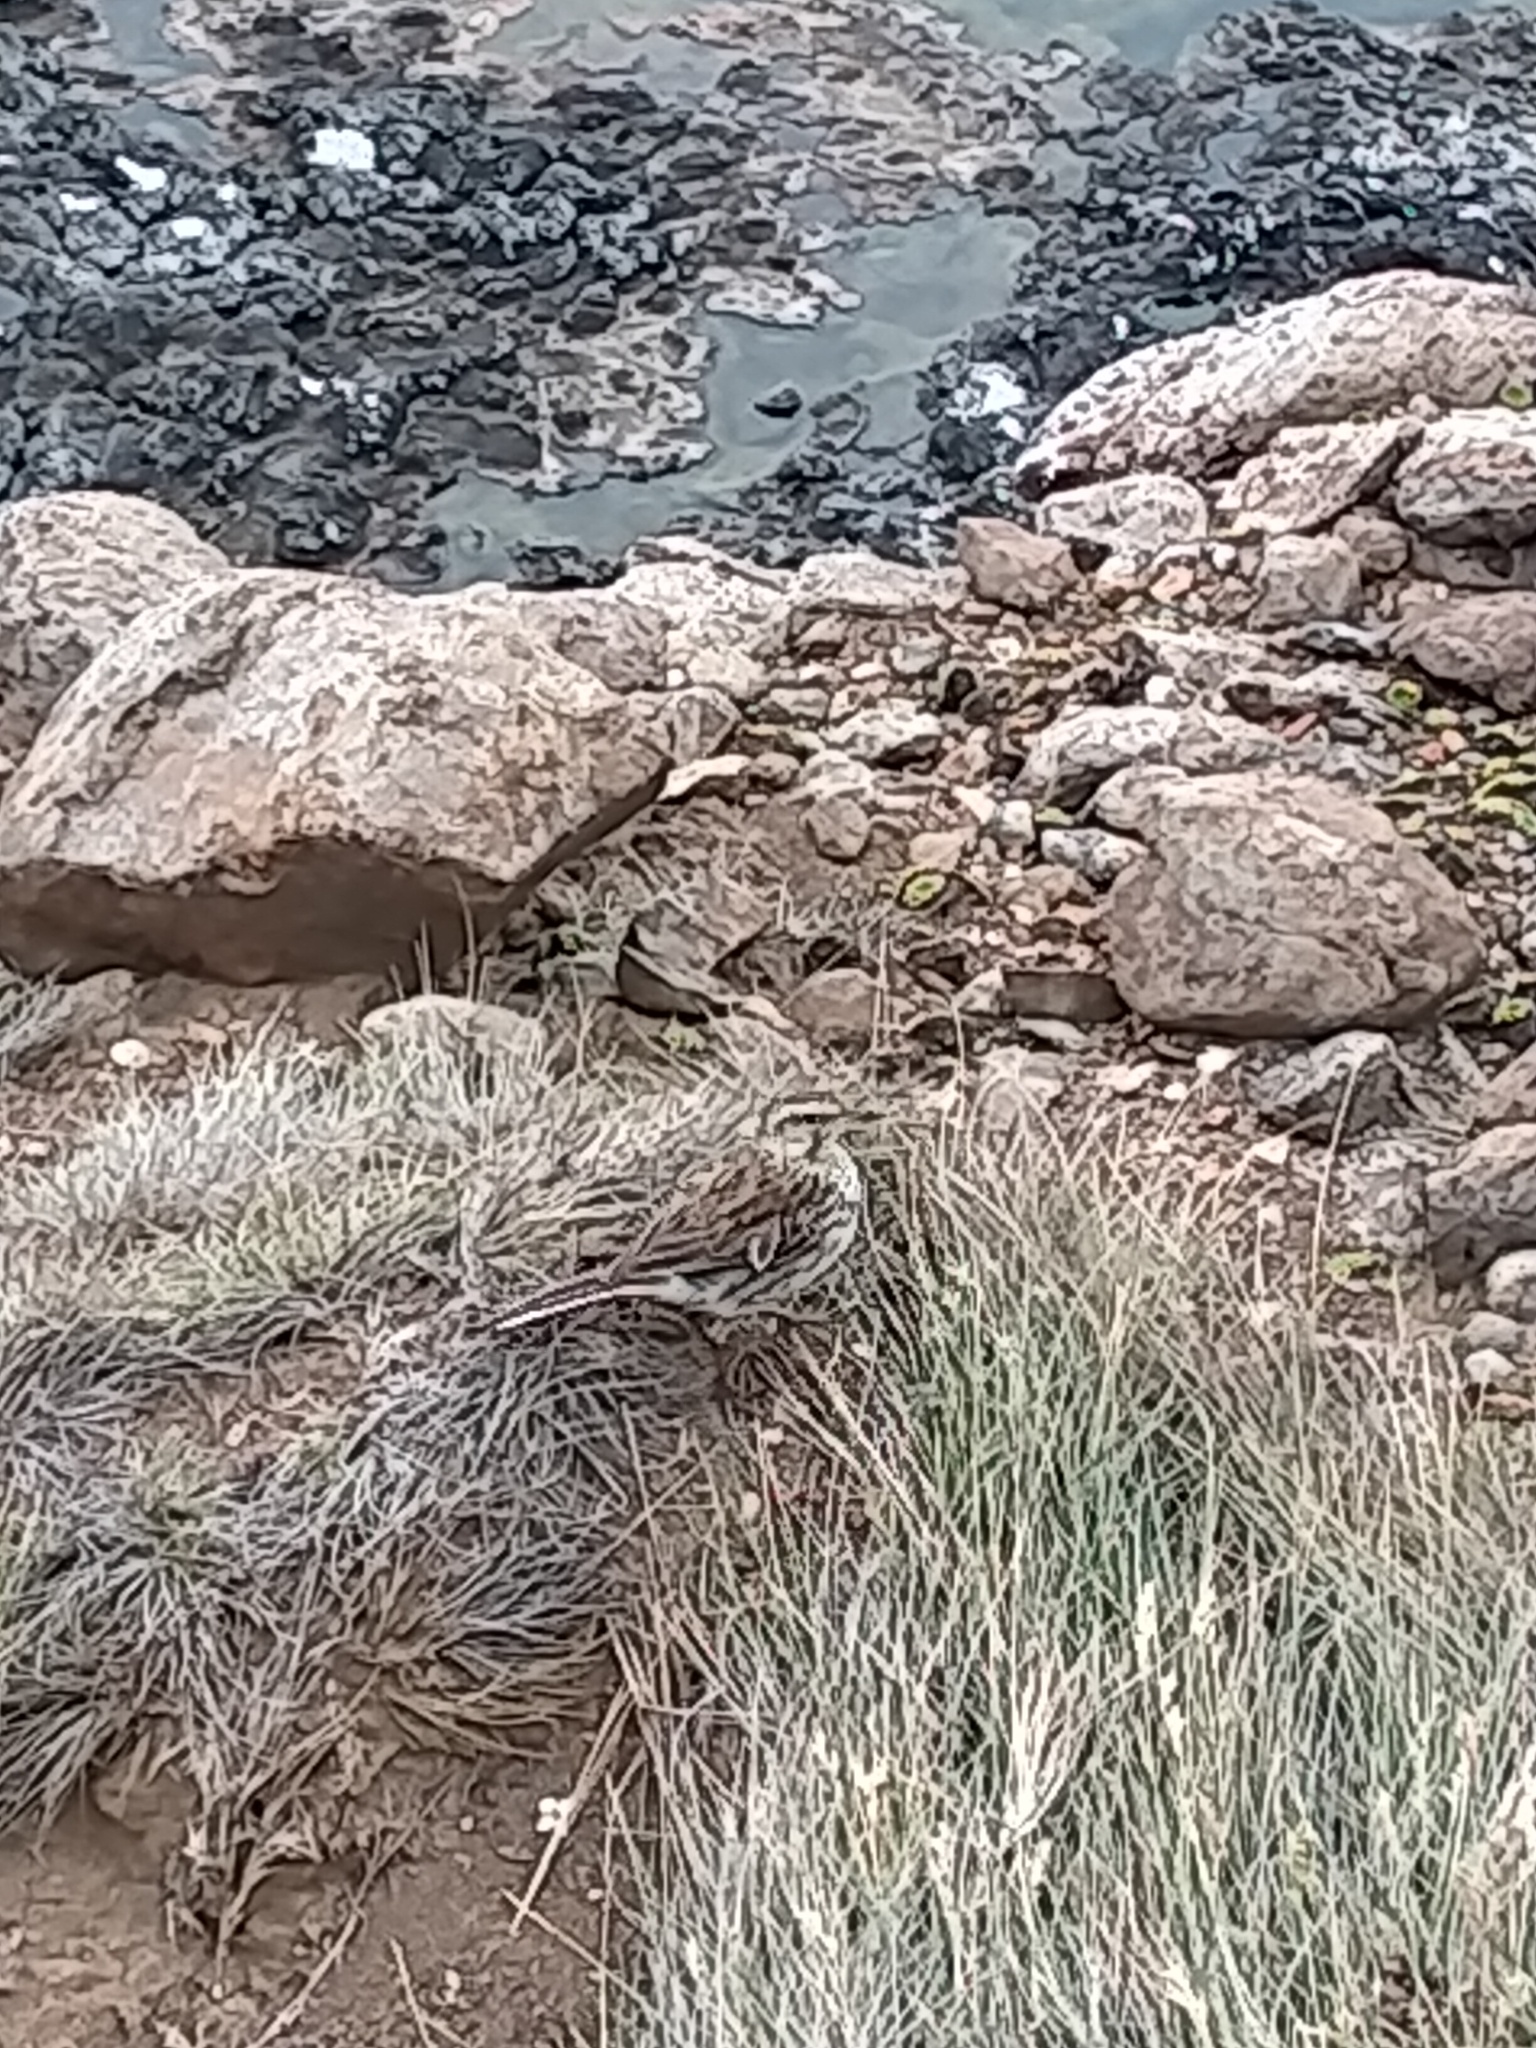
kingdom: Animalia
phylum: Chordata
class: Aves
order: Passeriformes
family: Motacillidae
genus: Anthus
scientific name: Anthus novaeseelandiae
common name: New zealand pipit
